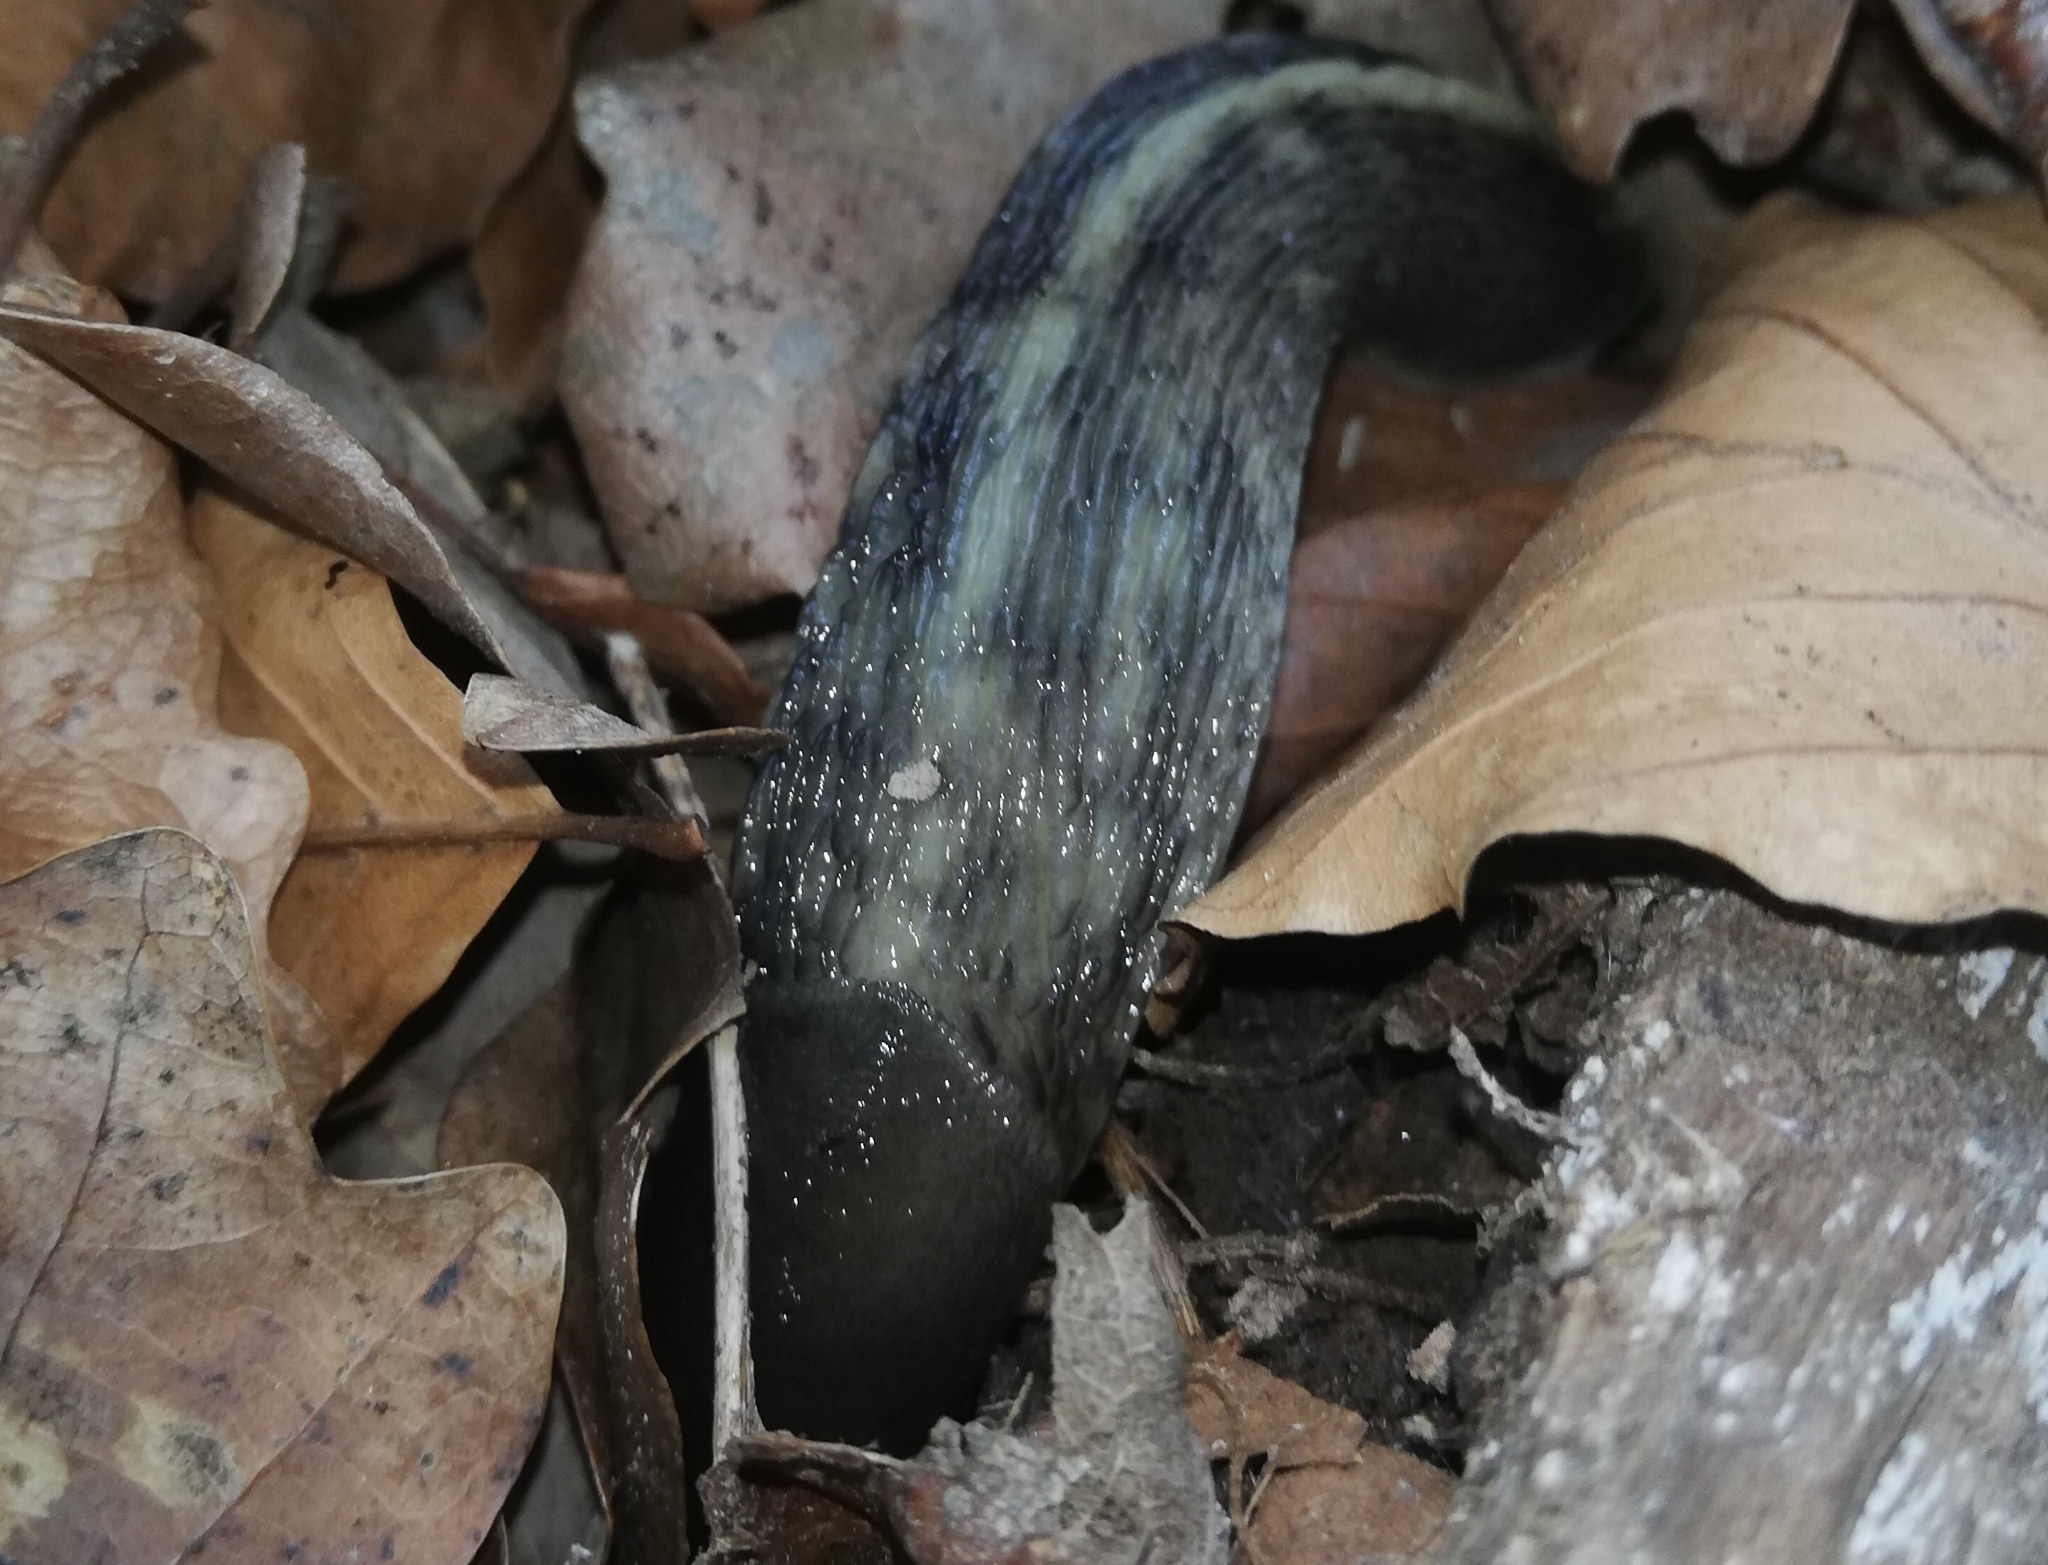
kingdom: Animalia
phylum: Mollusca
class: Gastropoda
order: Stylommatophora
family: Limacidae
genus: Limax
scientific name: Limax cinereoniger
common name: Ash-black slug
